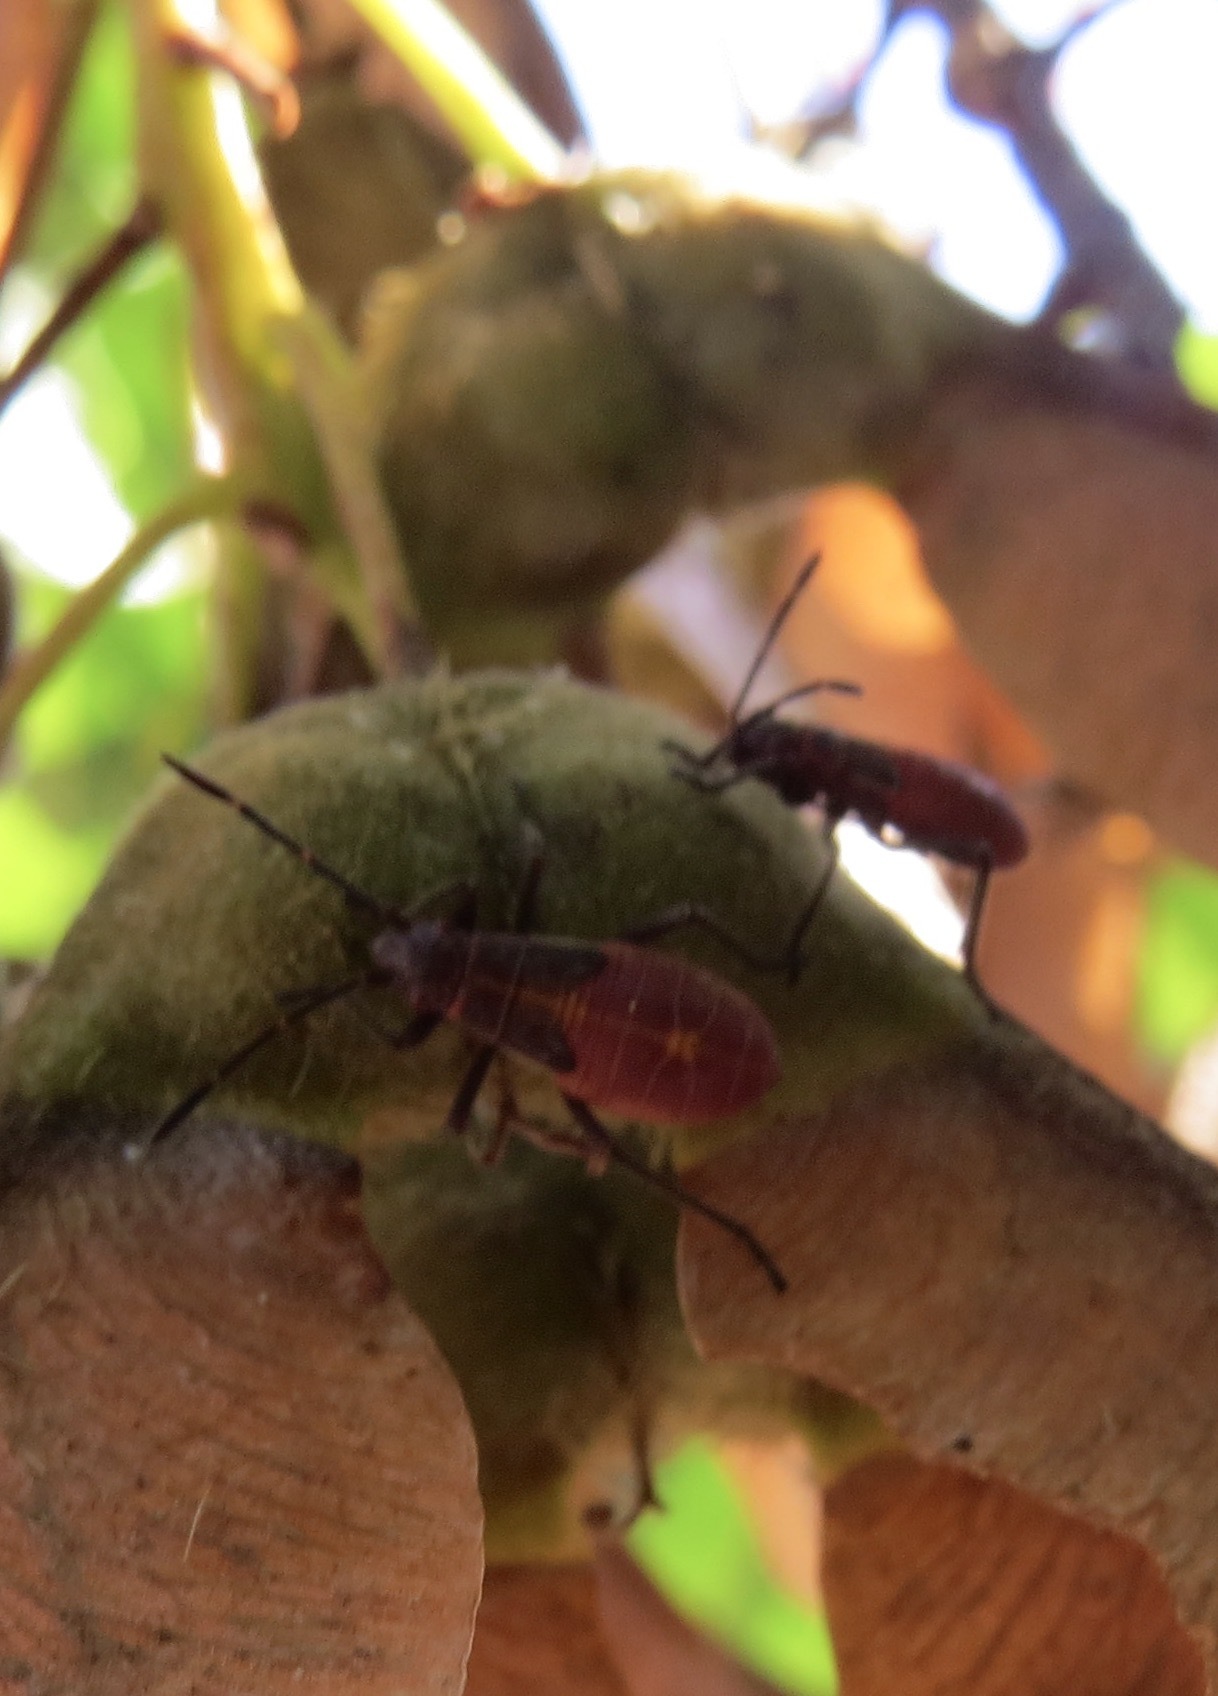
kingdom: Animalia
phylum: Arthropoda
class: Insecta
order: Hemiptera
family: Rhopalidae
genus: Boisea
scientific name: Boisea rubrolineata
